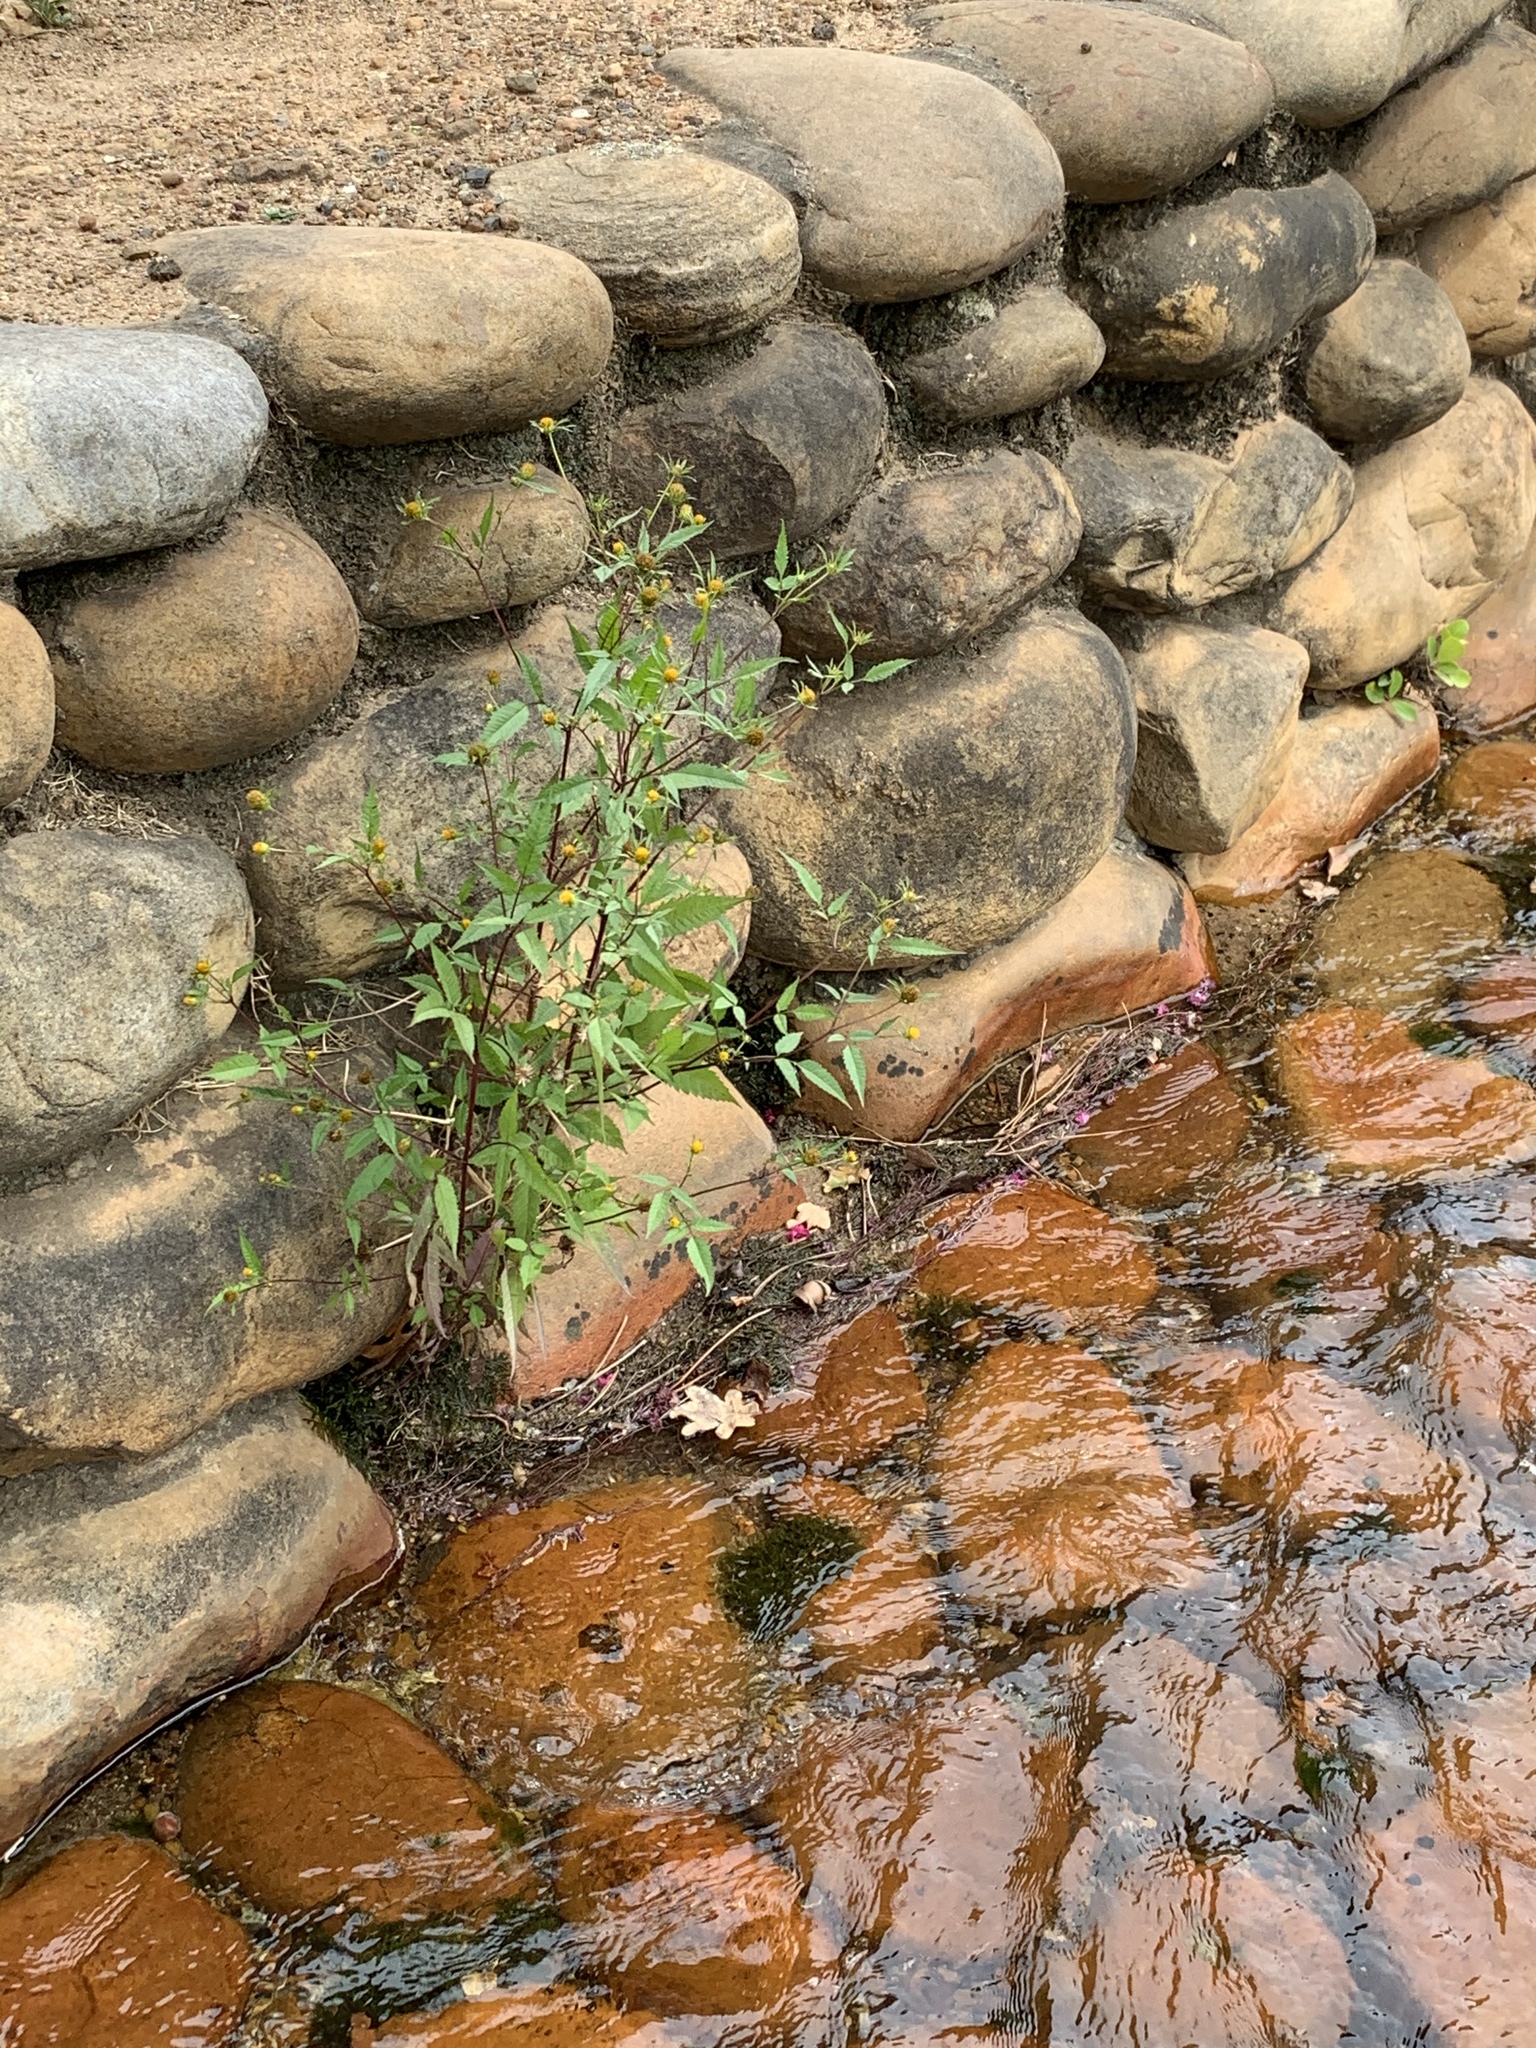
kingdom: Plantae
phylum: Tracheophyta
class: Magnoliopsida
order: Asterales
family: Asteraceae
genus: Bidens
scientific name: Bidens pilosa
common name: Black-jack
